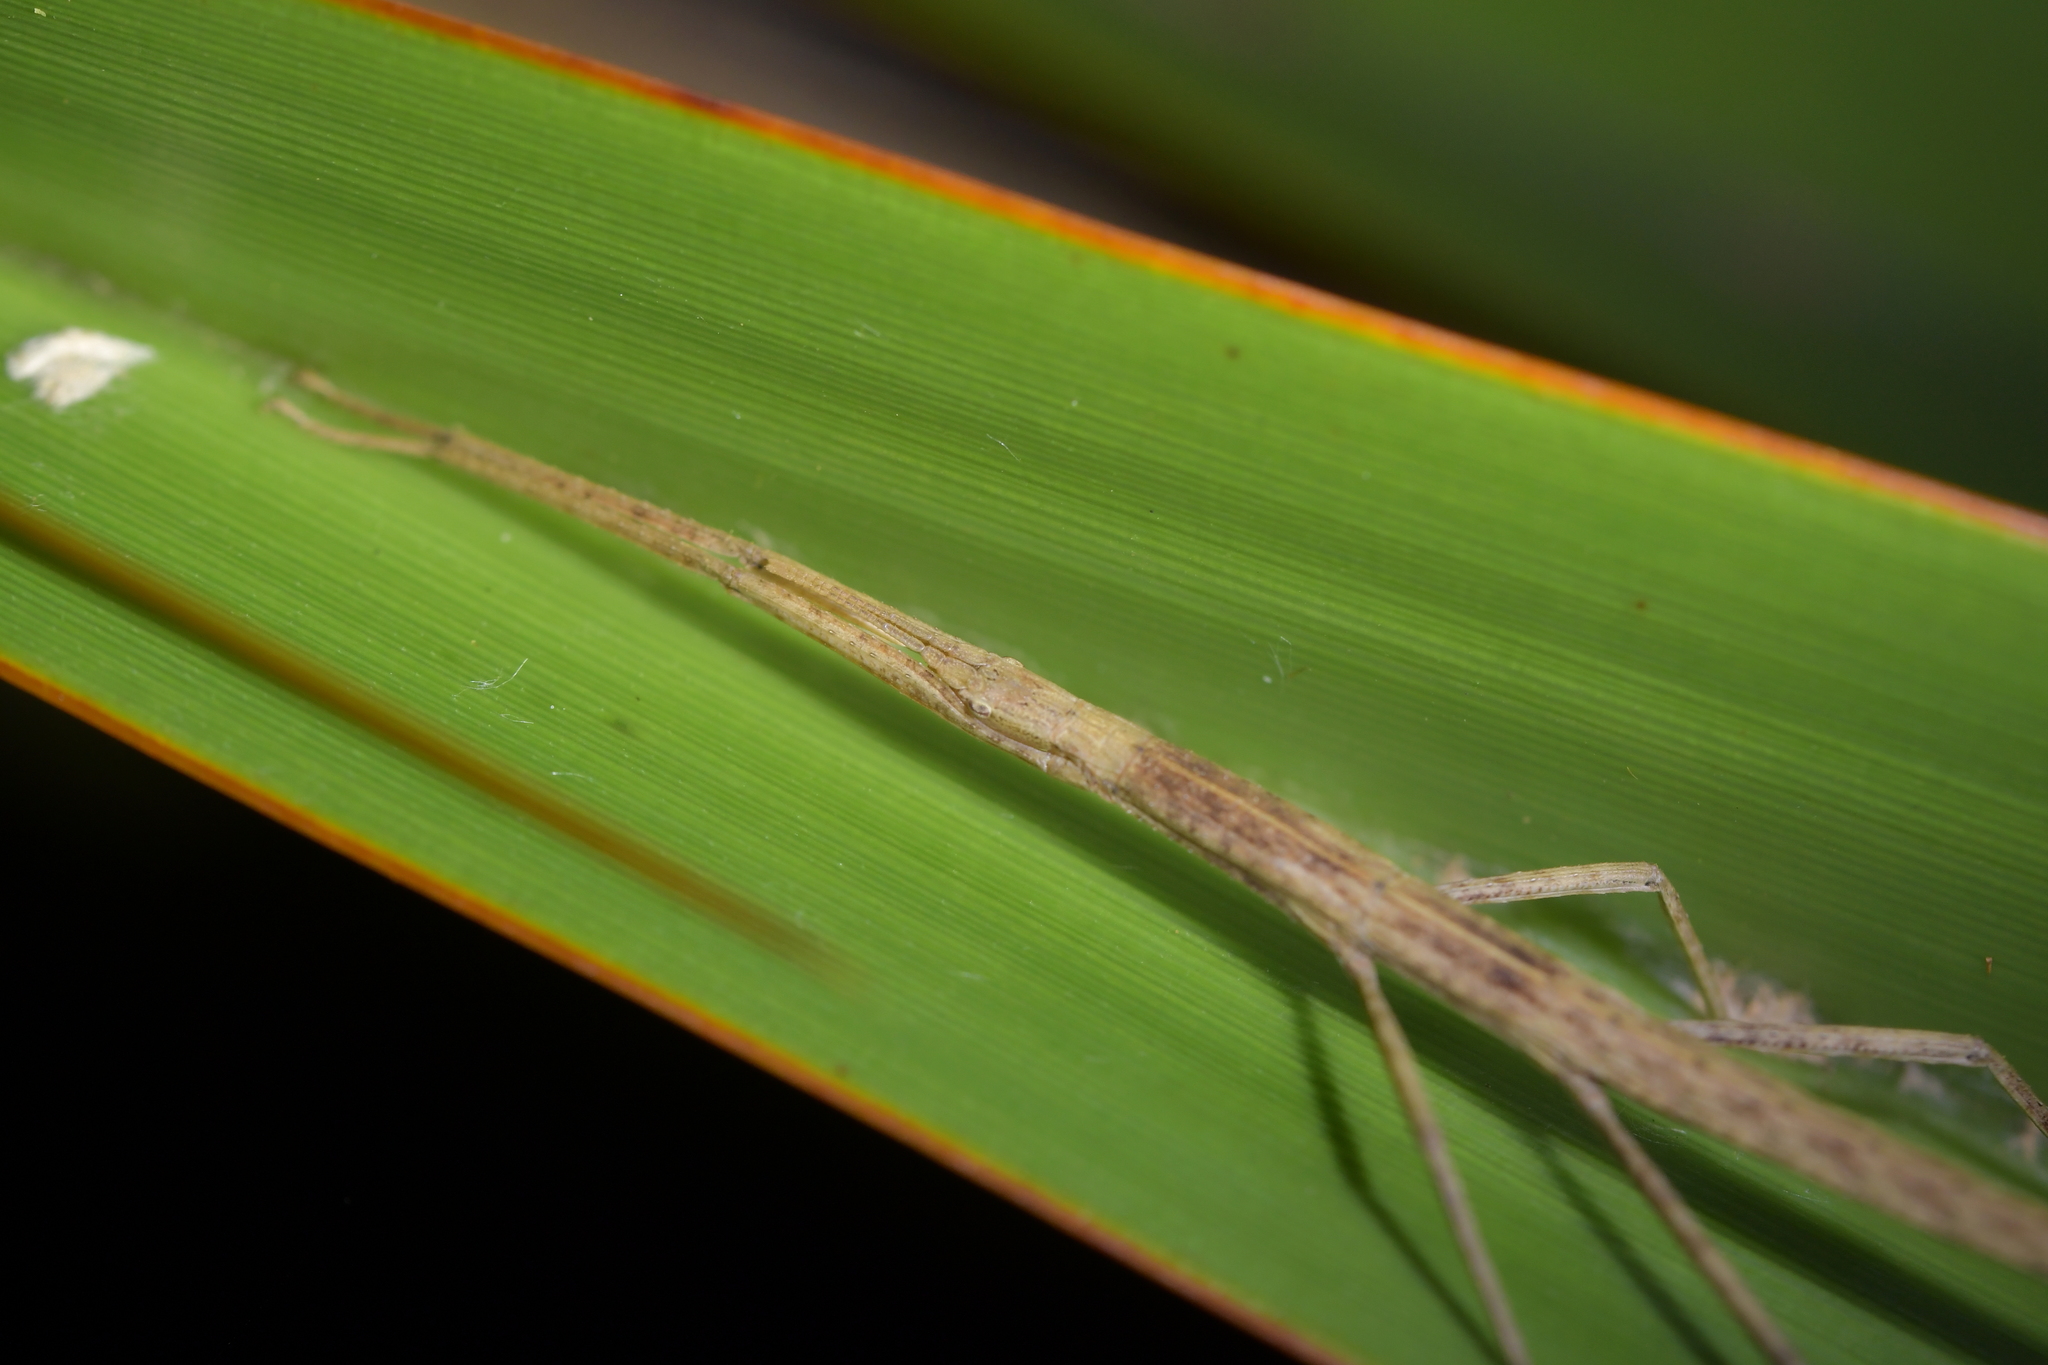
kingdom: Animalia
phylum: Arthropoda
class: Insecta
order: Phasmida
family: Phasmatidae
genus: Tectarchus
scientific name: Tectarchus huttoni
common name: The common ridge-backed stick insect
